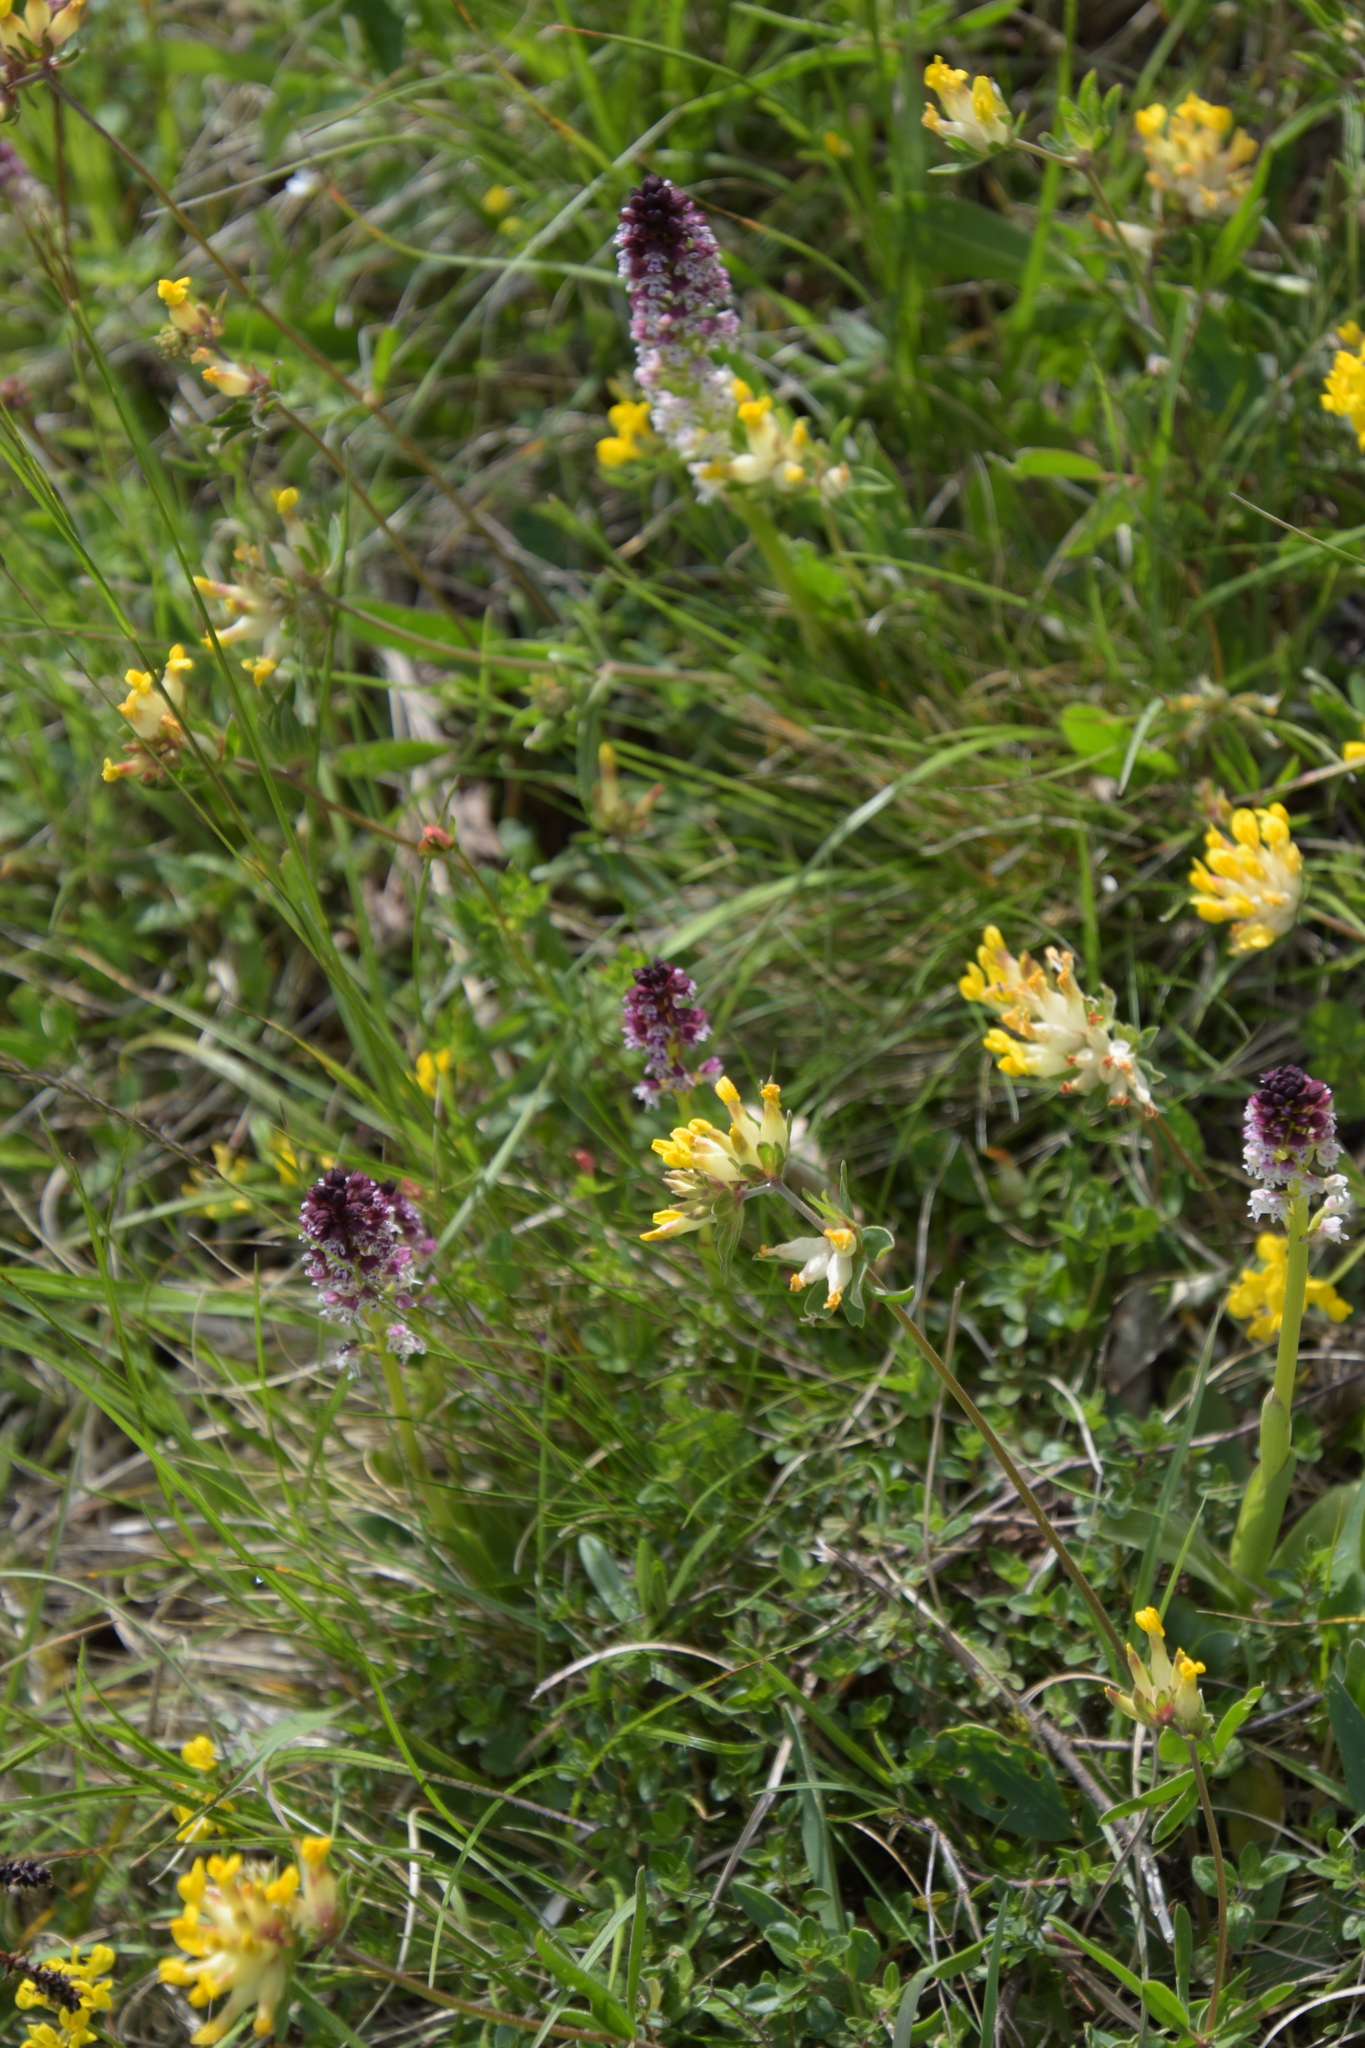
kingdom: Plantae
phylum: Tracheophyta
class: Liliopsida
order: Asparagales
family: Orchidaceae
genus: Neotinea
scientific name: Neotinea ustulata
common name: Burnt orchid
